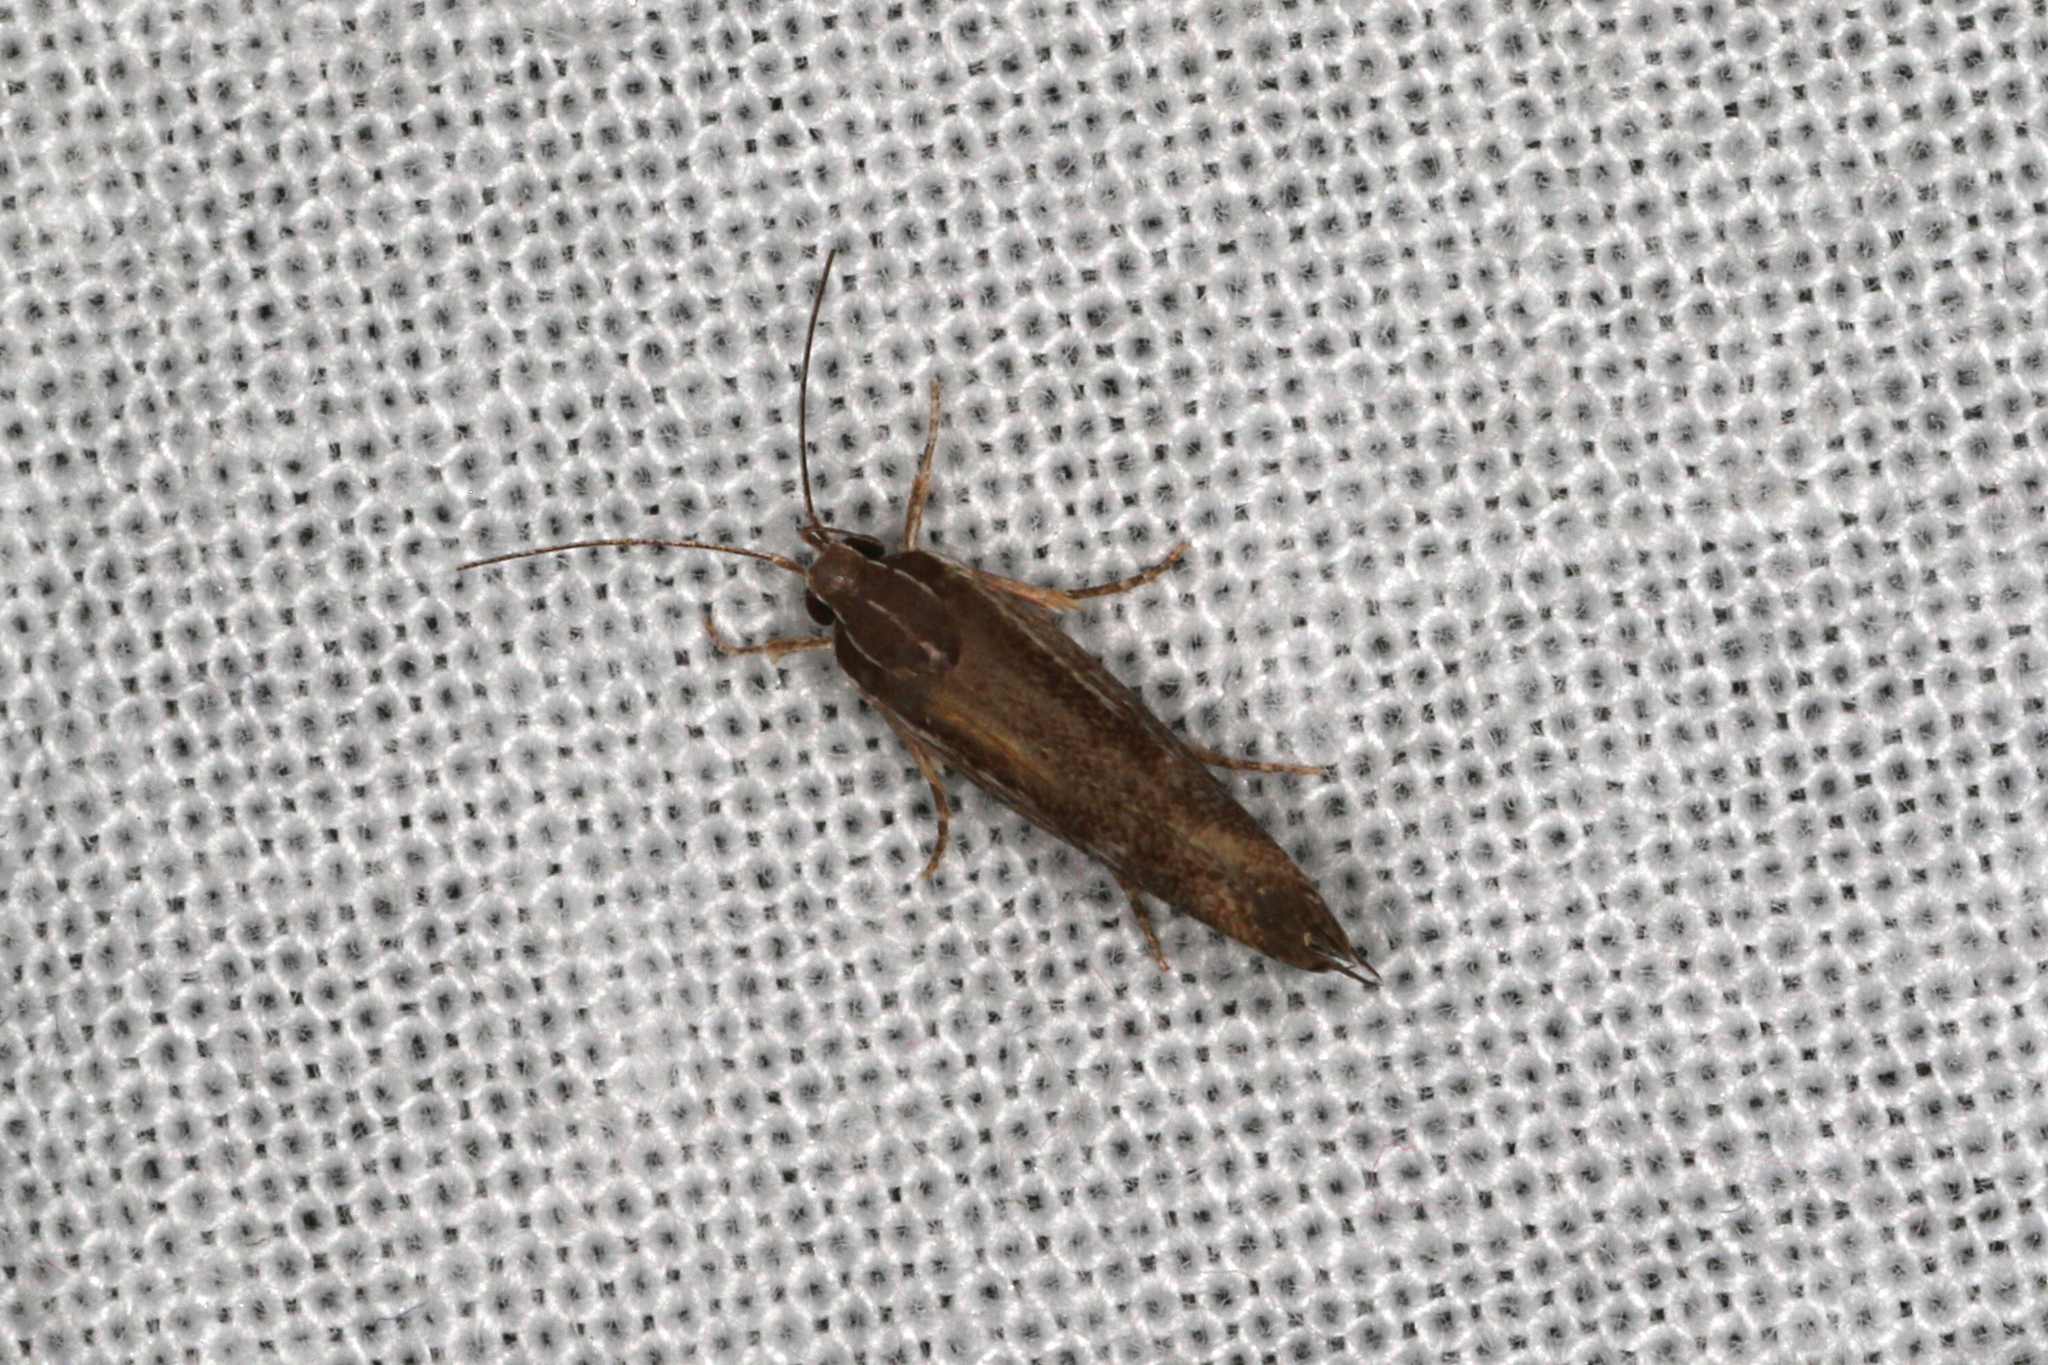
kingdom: Animalia
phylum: Arthropoda
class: Insecta
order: Lepidoptera
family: Xyloryctidae
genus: Phthonerodes
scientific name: Phthonerodes peridela
